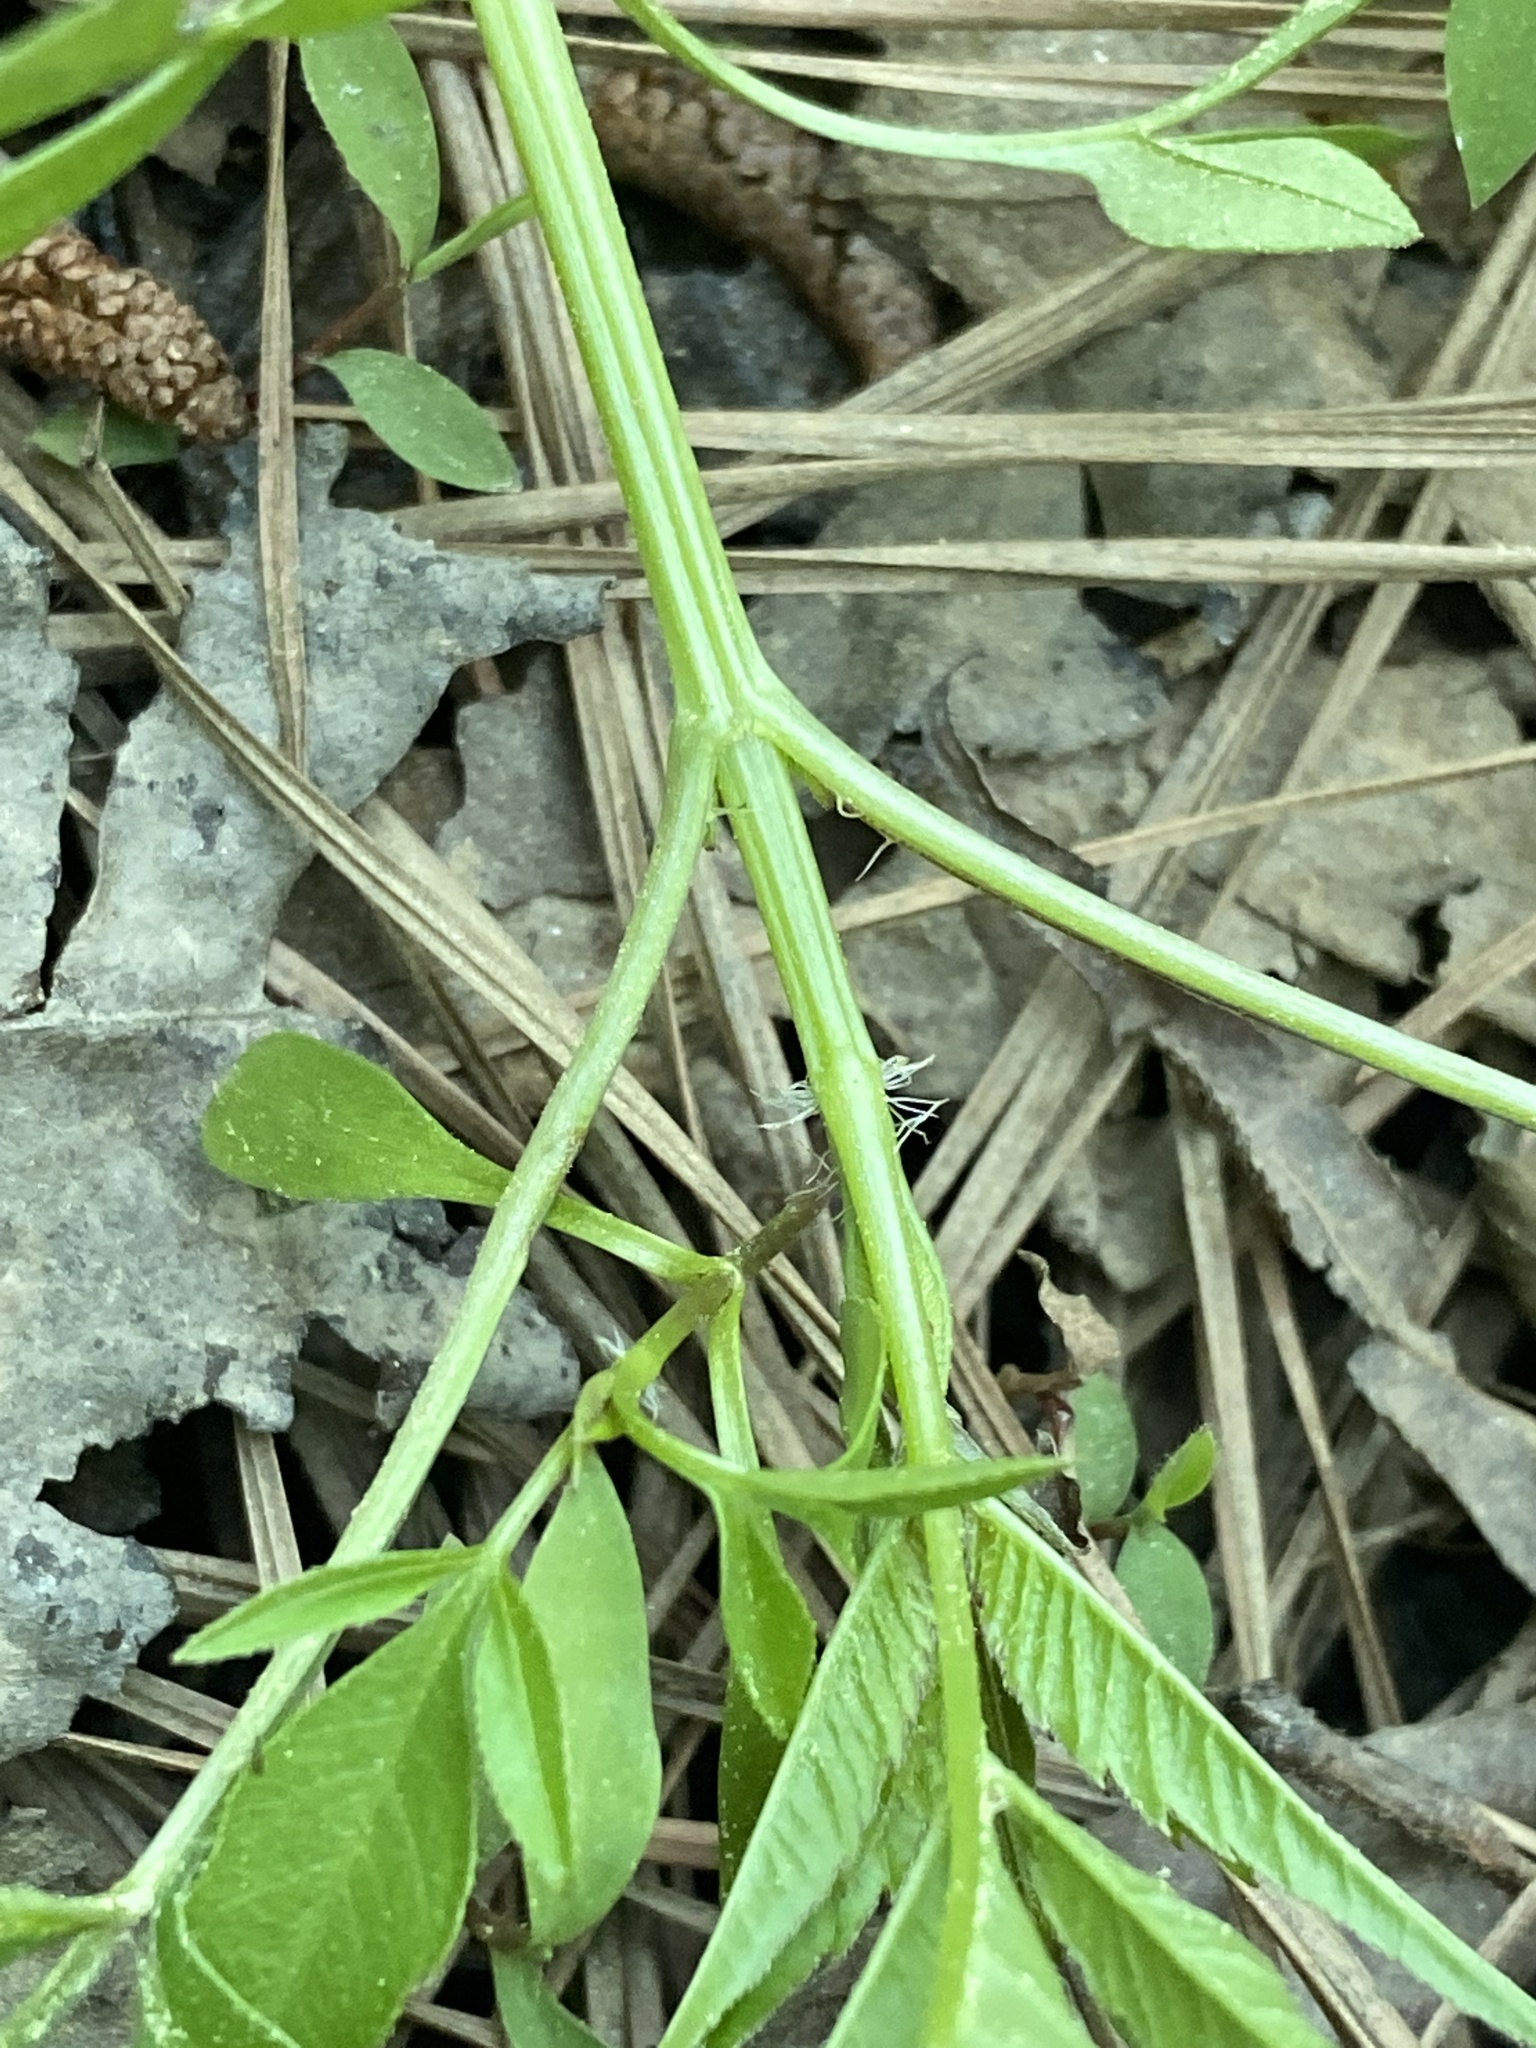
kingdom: Plantae
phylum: Tracheophyta
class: Magnoliopsida
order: Asterales
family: Asteraceae
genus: Bidens
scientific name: Bidens frondosa
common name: Beggarticks
